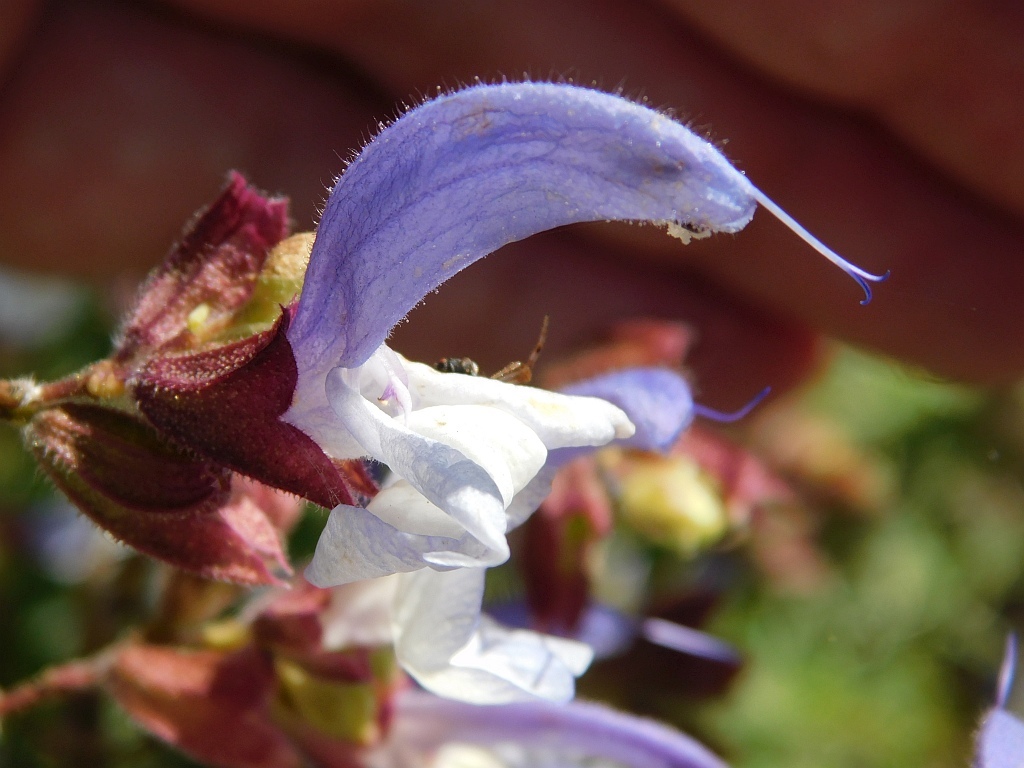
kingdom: Plantae
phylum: Tracheophyta
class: Magnoliopsida
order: Lamiales
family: Lamiaceae
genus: Salvia
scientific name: Salvia chamelaeagnea
